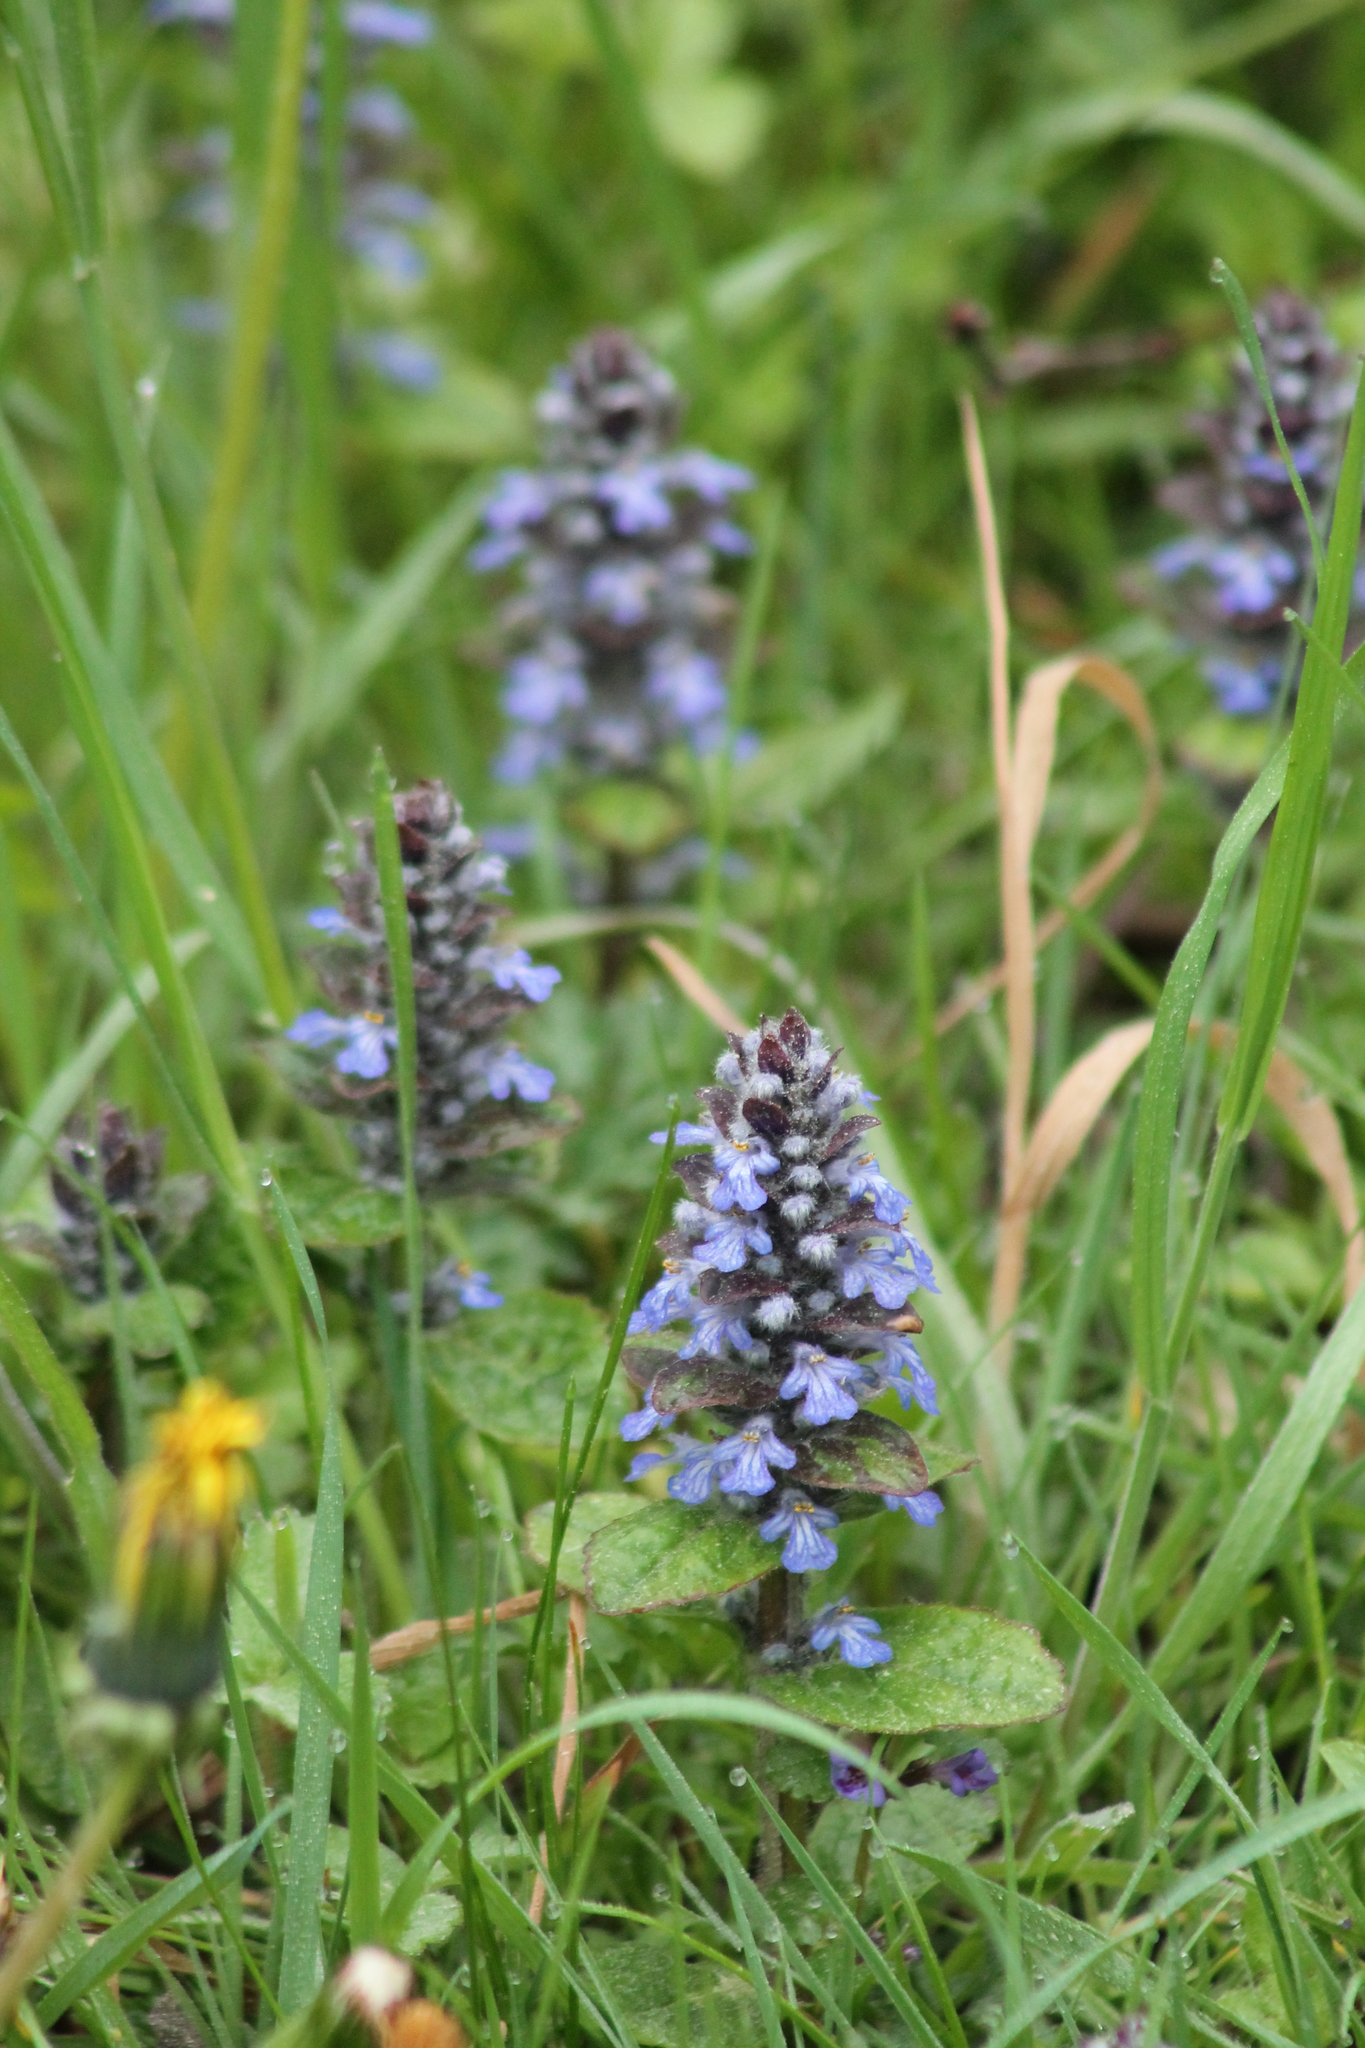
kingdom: Plantae
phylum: Tracheophyta
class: Magnoliopsida
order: Lamiales
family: Lamiaceae
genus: Ajuga
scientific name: Ajuga reptans
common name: Bugle
